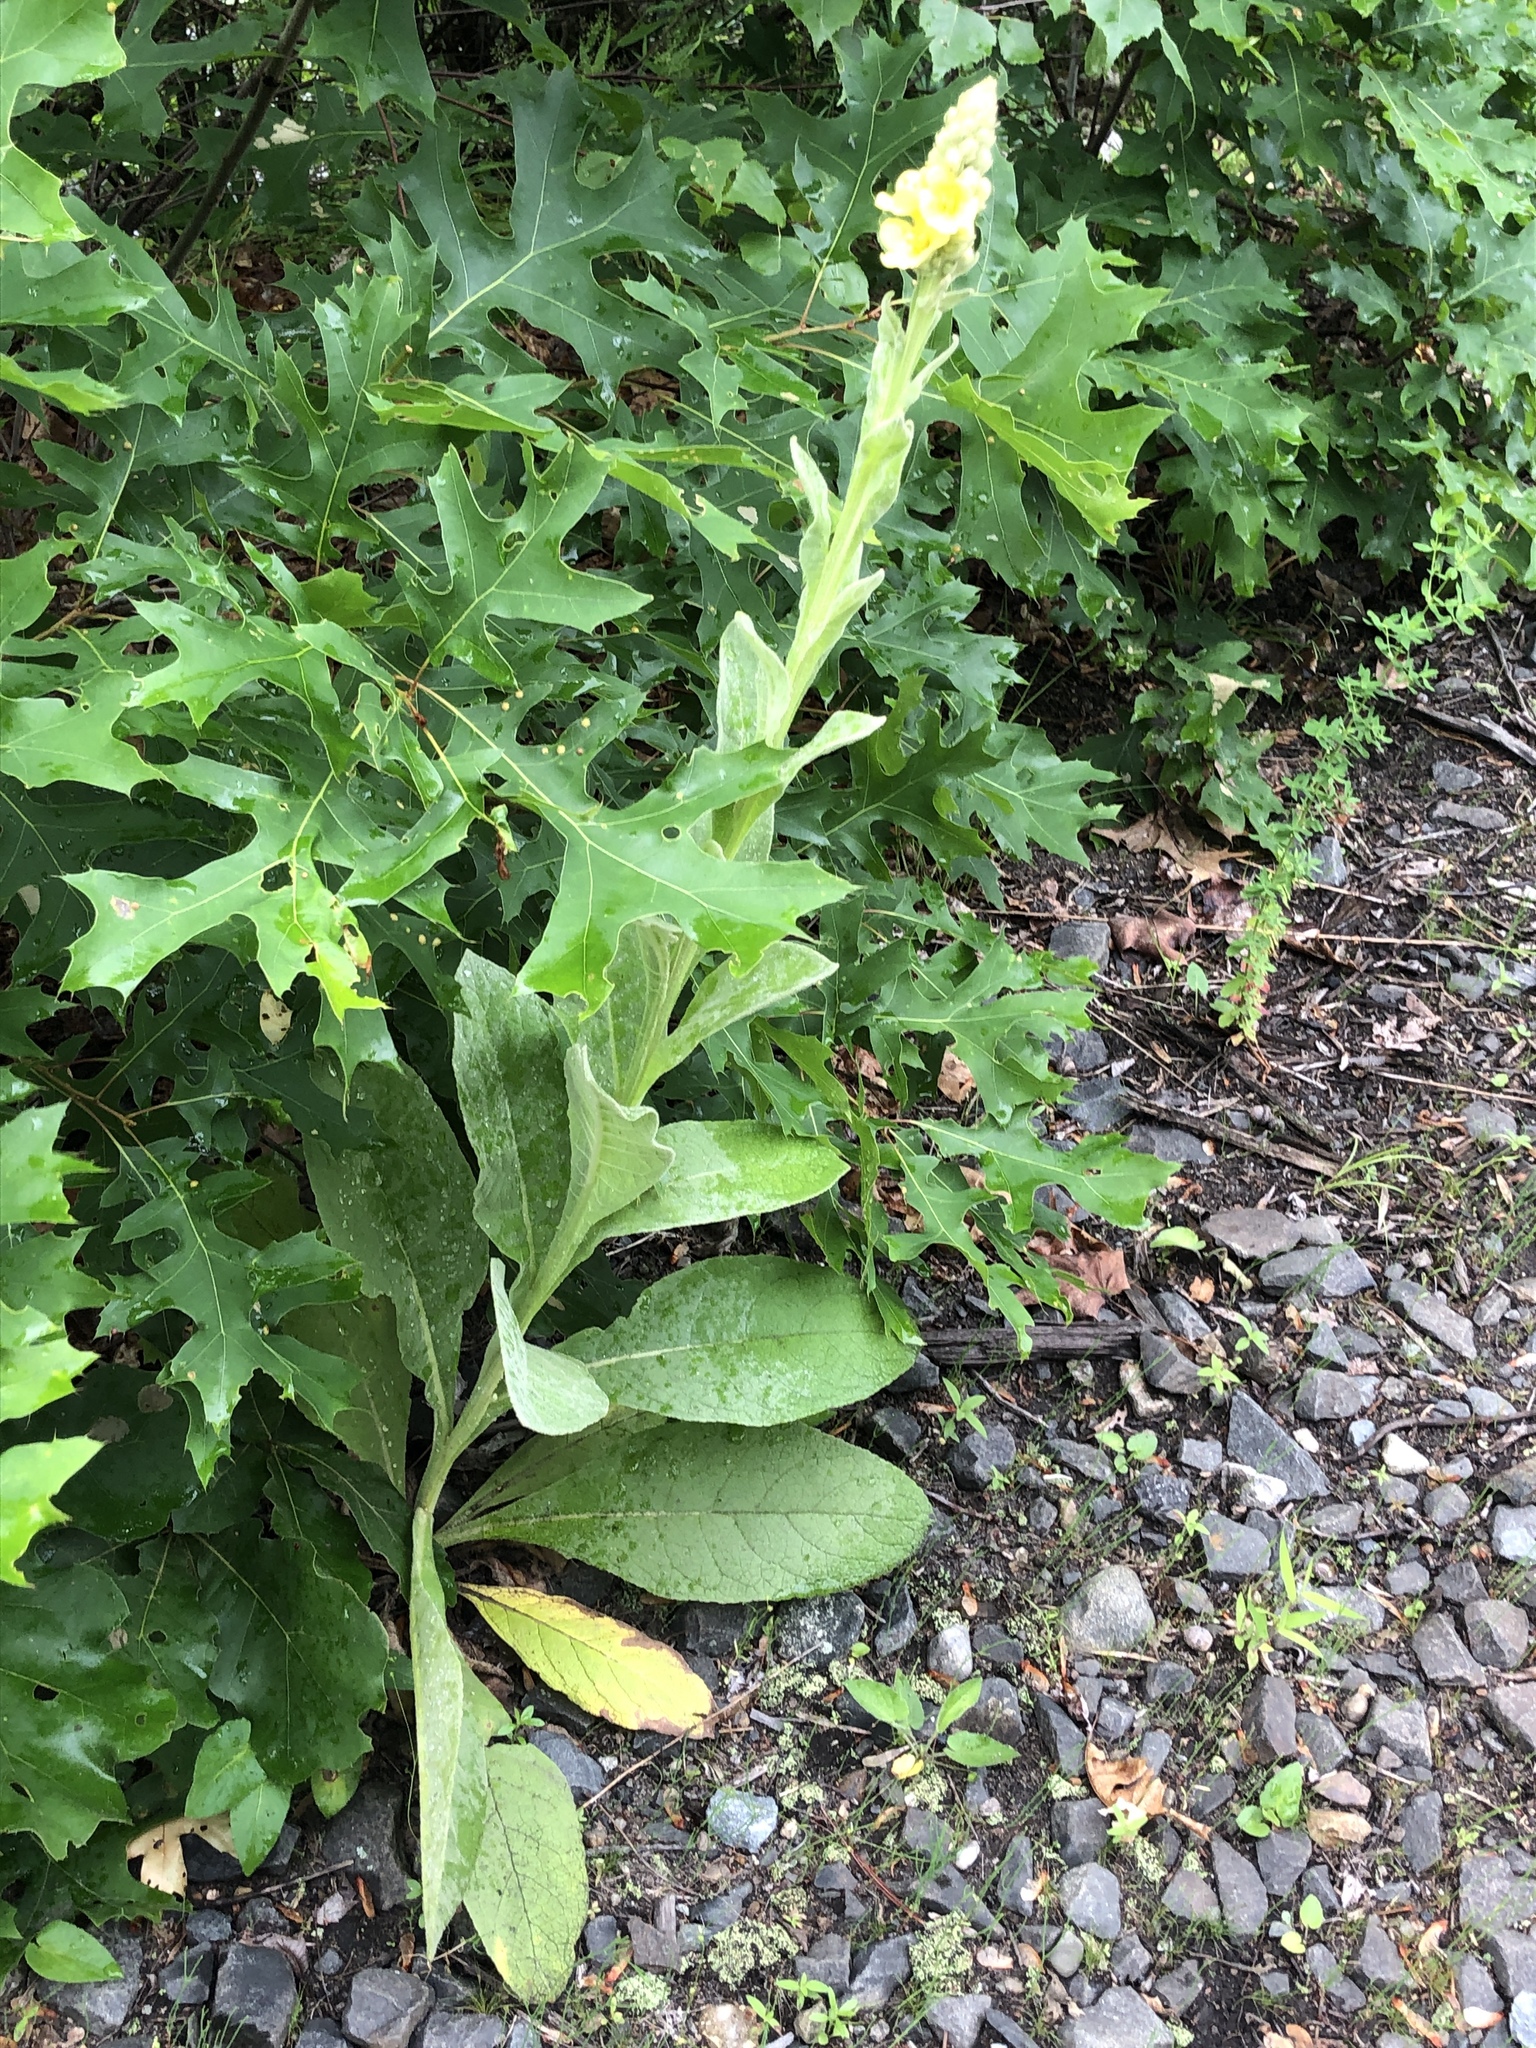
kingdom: Plantae
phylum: Tracheophyta
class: Magnoliopsida
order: Lamiales
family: Scrophulariaceae
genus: Verbascum
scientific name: Verbascum thapsus
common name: Common mullein
